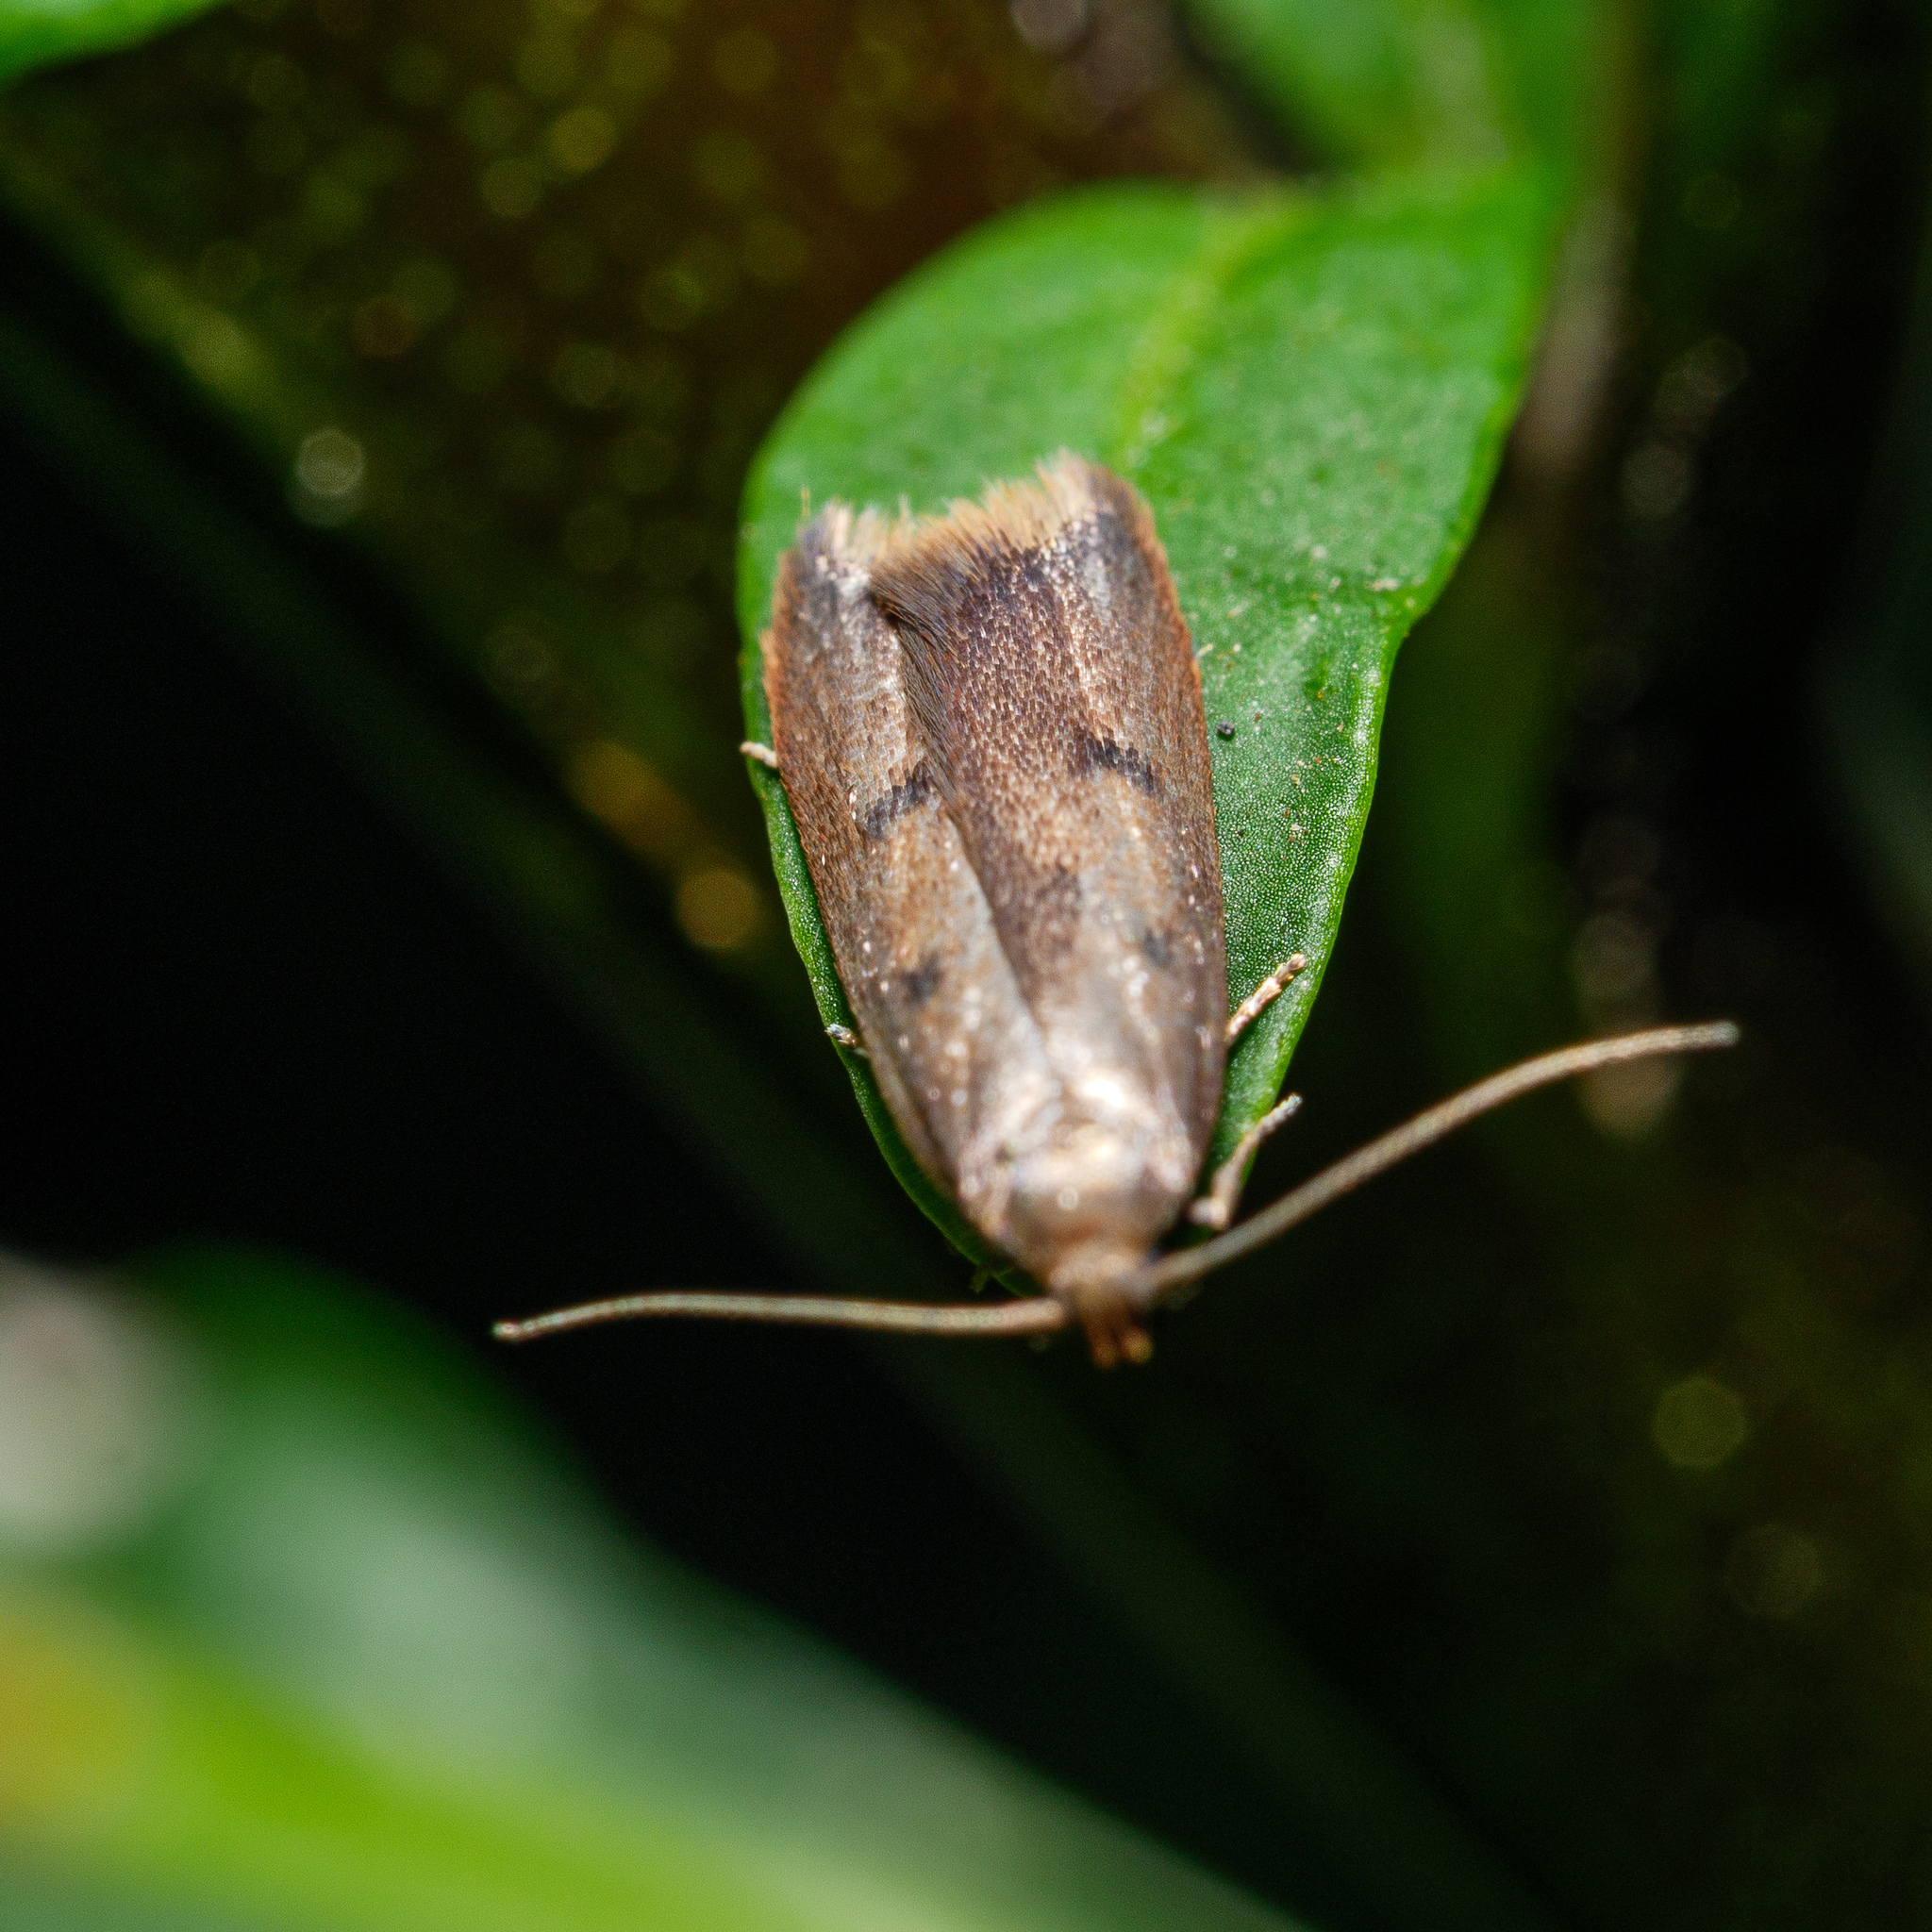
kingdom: Animalia
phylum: Arthropoda
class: Insecta
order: Lepidoptera
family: Oecophoridae
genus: Tachystola
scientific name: Tachystola acroxantha
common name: Ruddy streak
